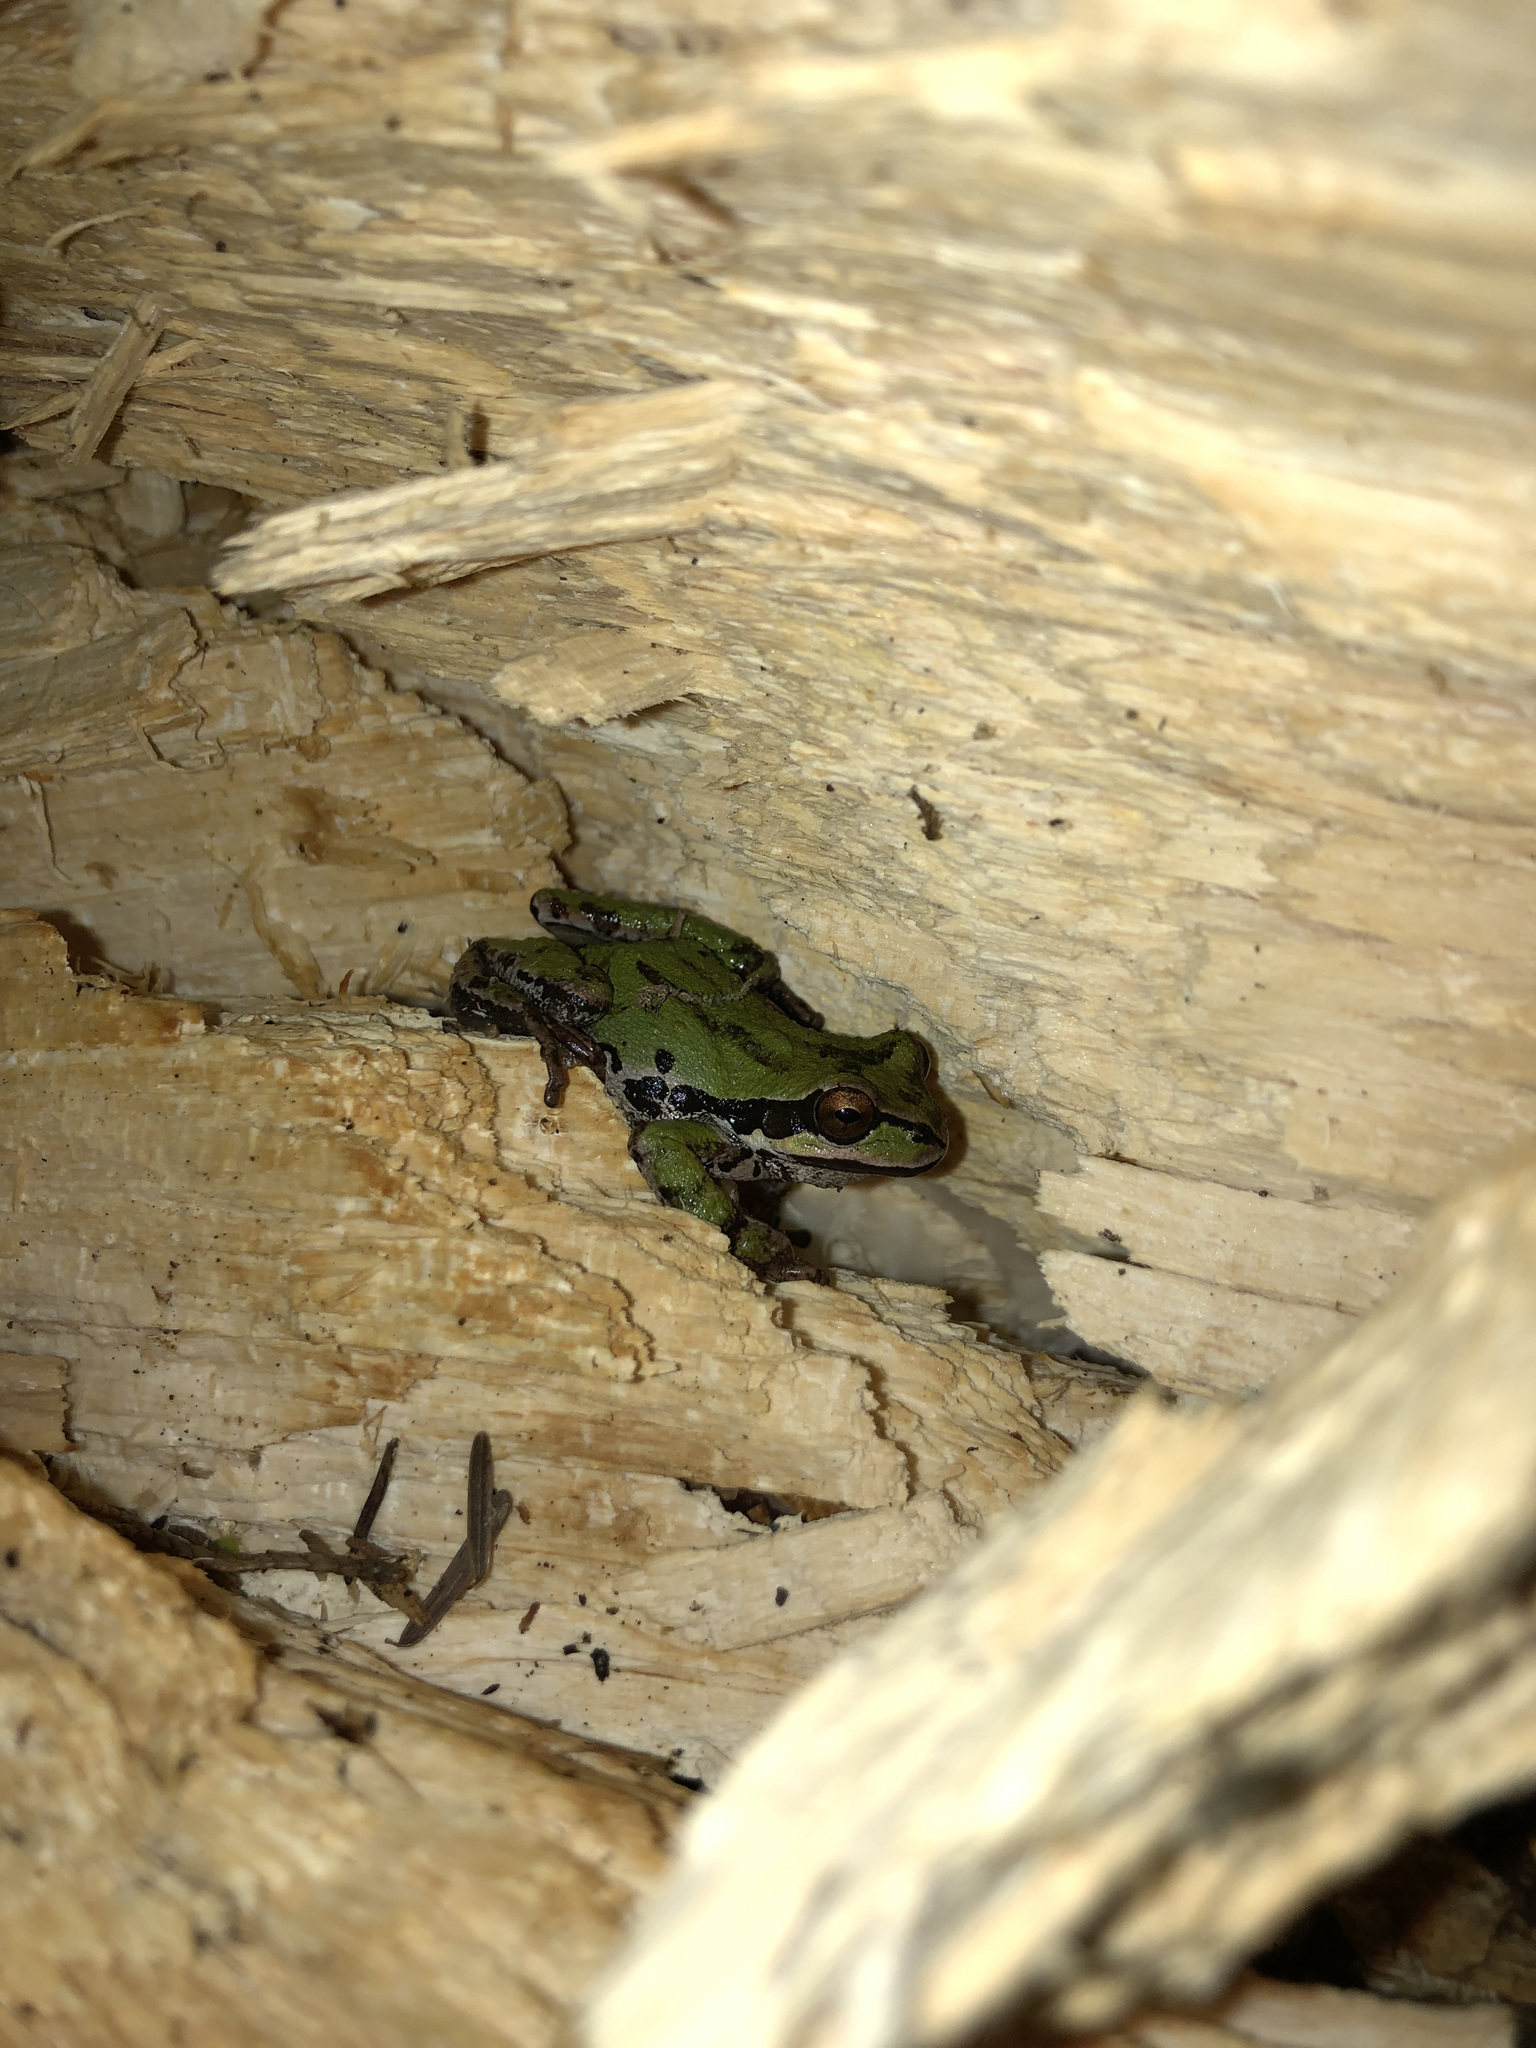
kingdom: Animalia
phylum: Chordata
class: Amphibia
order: Anura
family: Hylidae
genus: Pseudacris
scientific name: Pseudacris regilla
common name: Pacific chorus frog
